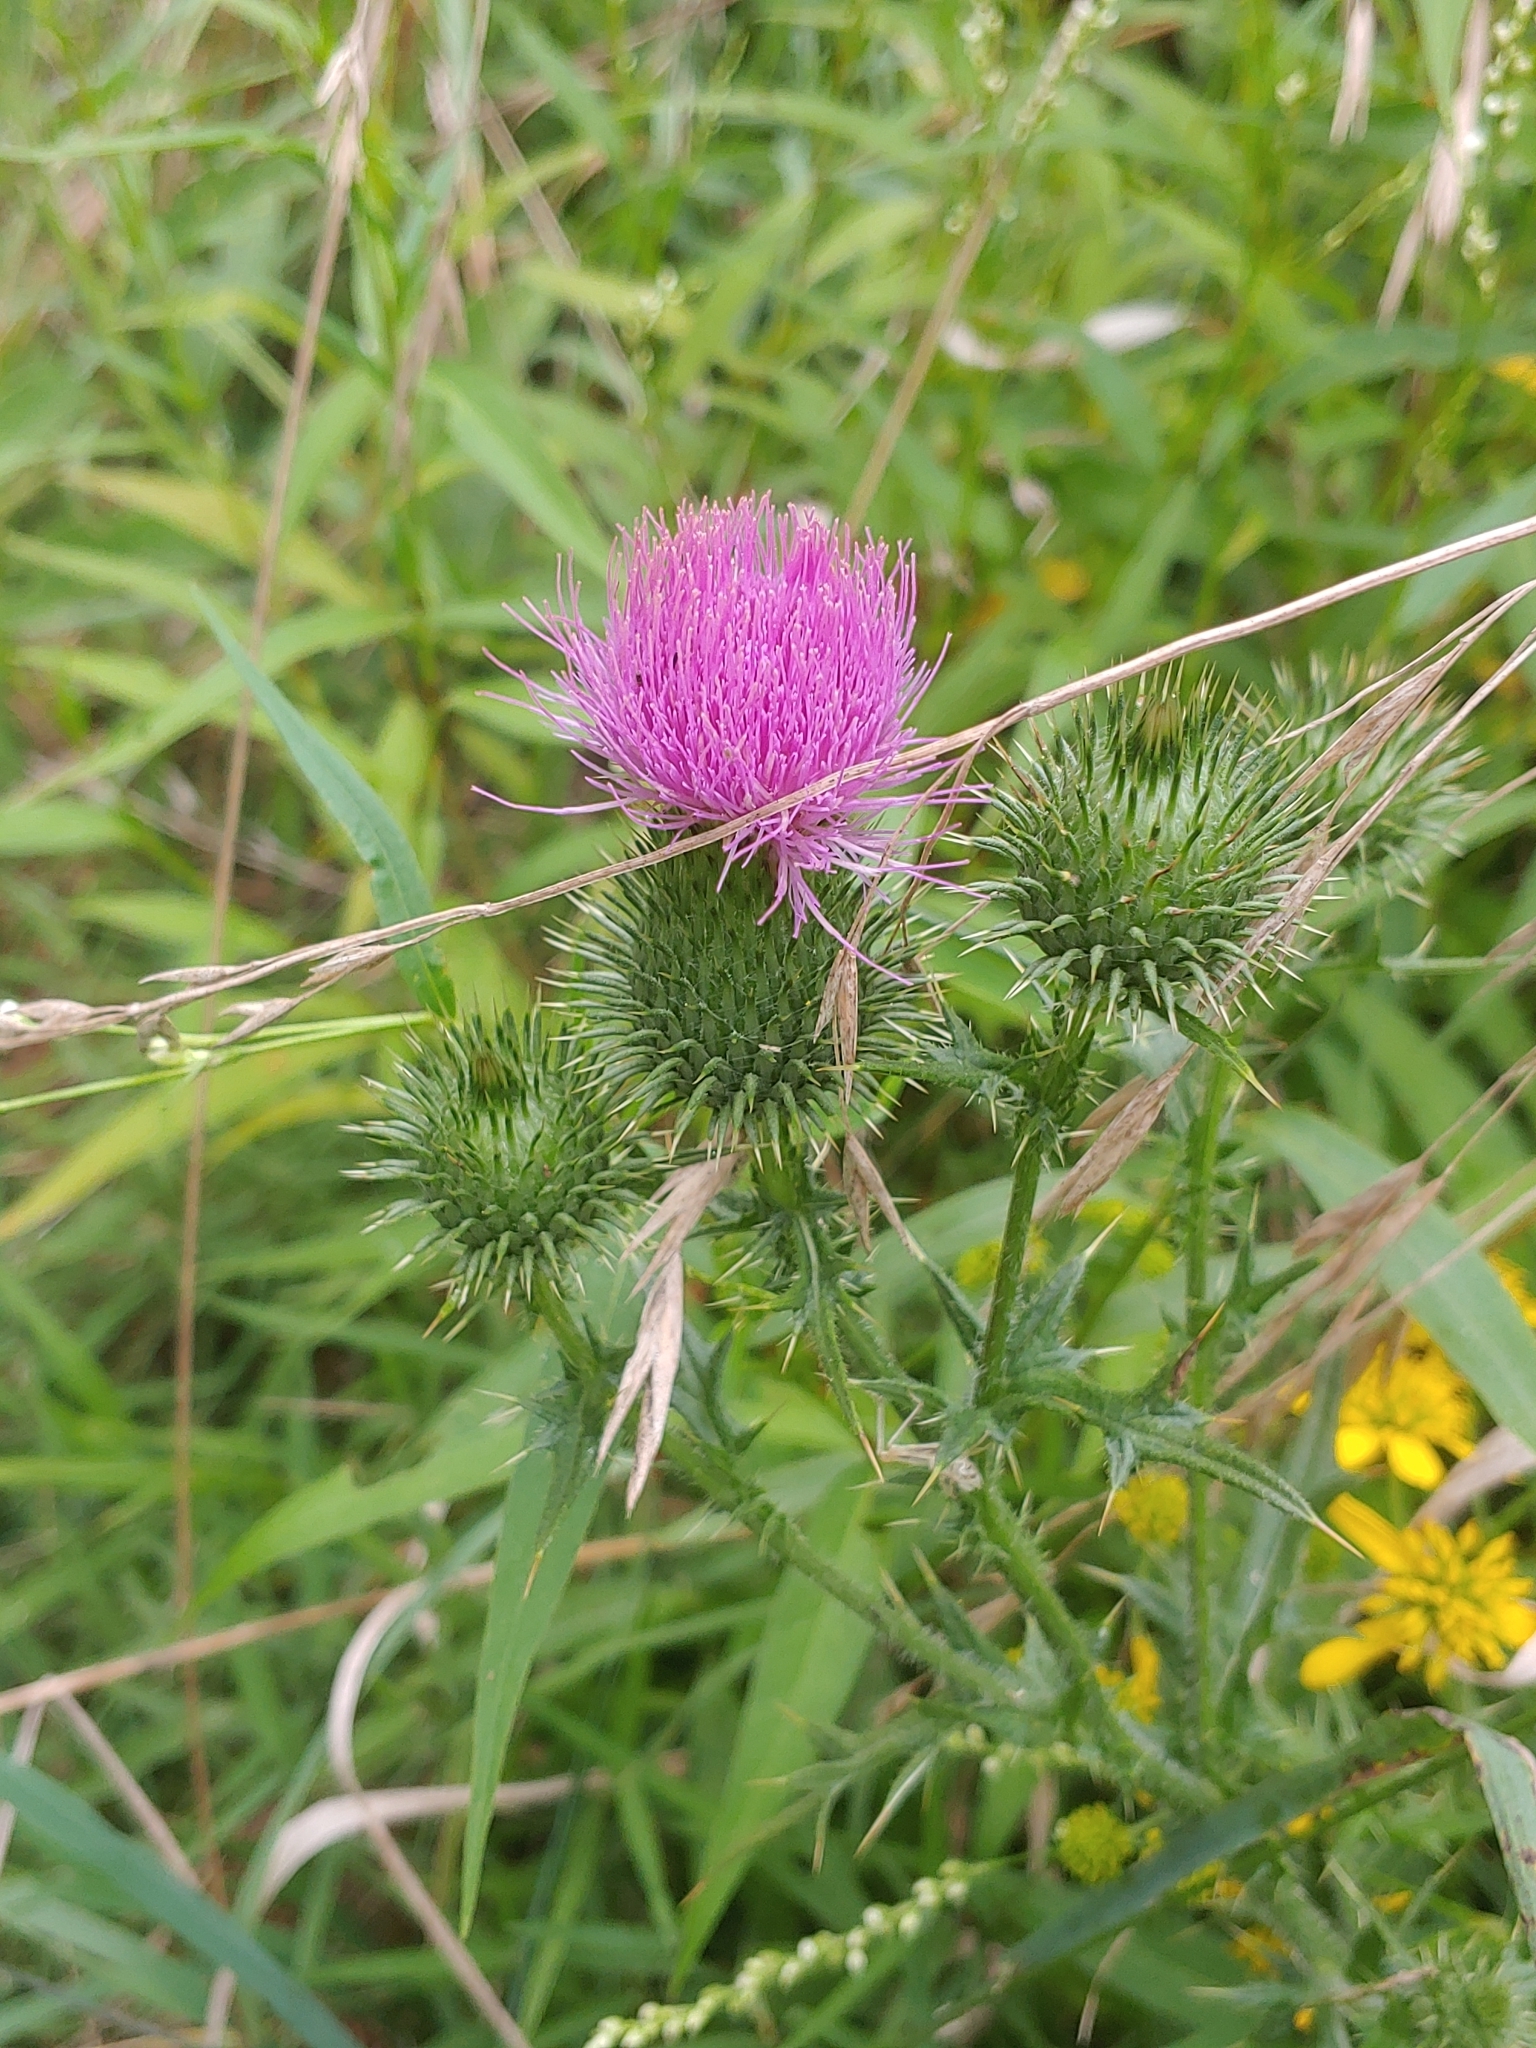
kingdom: Plantae
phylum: Tracheophyta
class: Magnoliopsida
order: Asterales
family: Asteraceae
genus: Cirsium
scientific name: Cirsium vulgare
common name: Bull thistle
